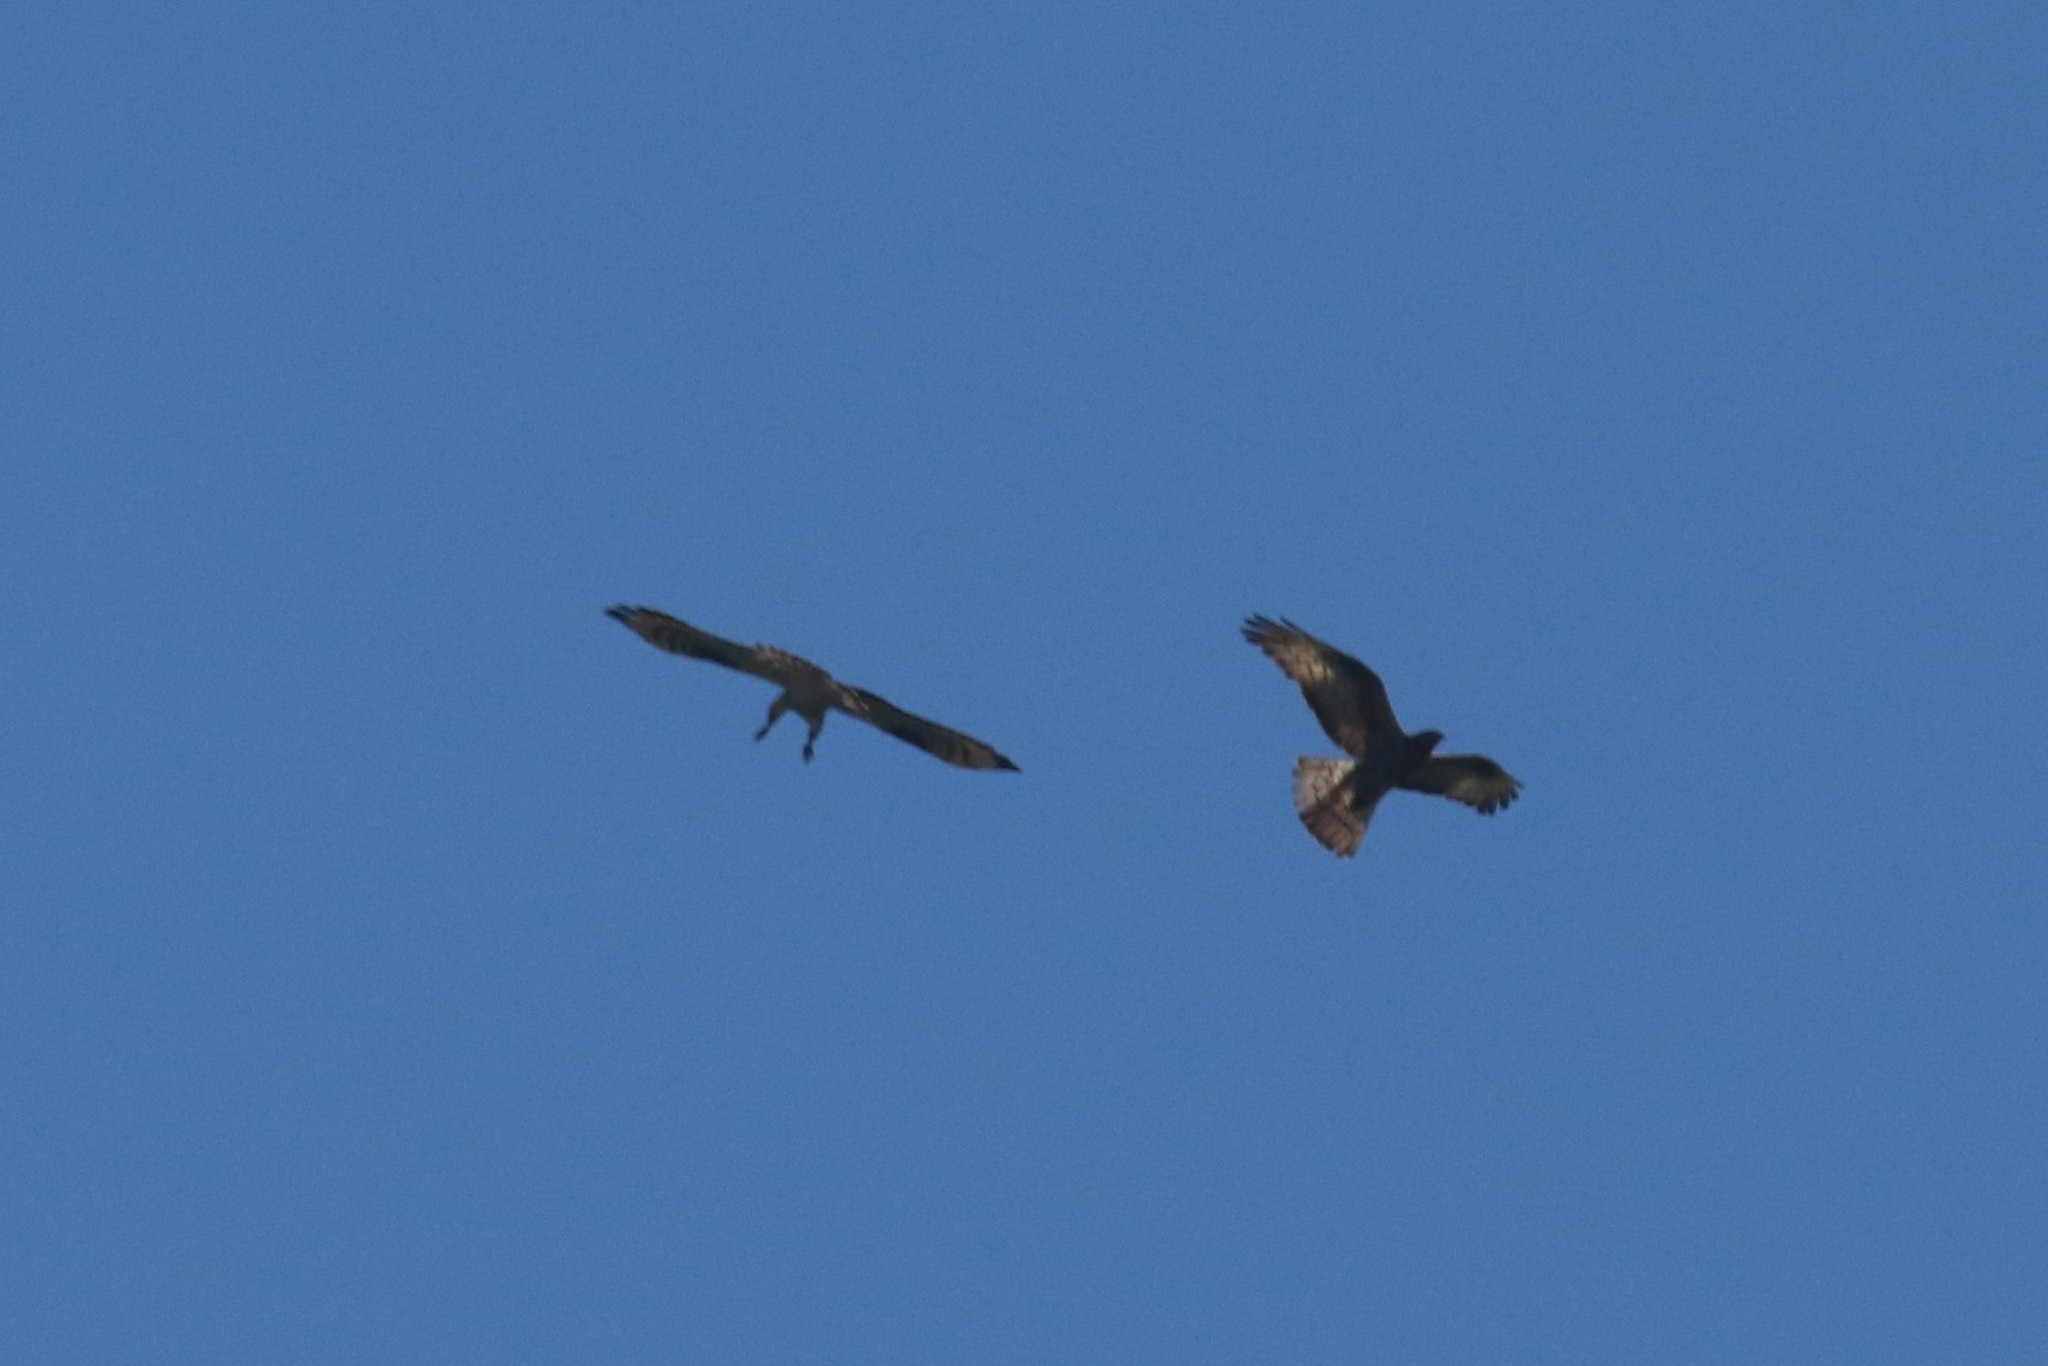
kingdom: Animalia
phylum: Chordata
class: Aves
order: Accipitriformes
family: Accipitridae
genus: Pernis
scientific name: Pernis apivorus
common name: European honey buzzard
